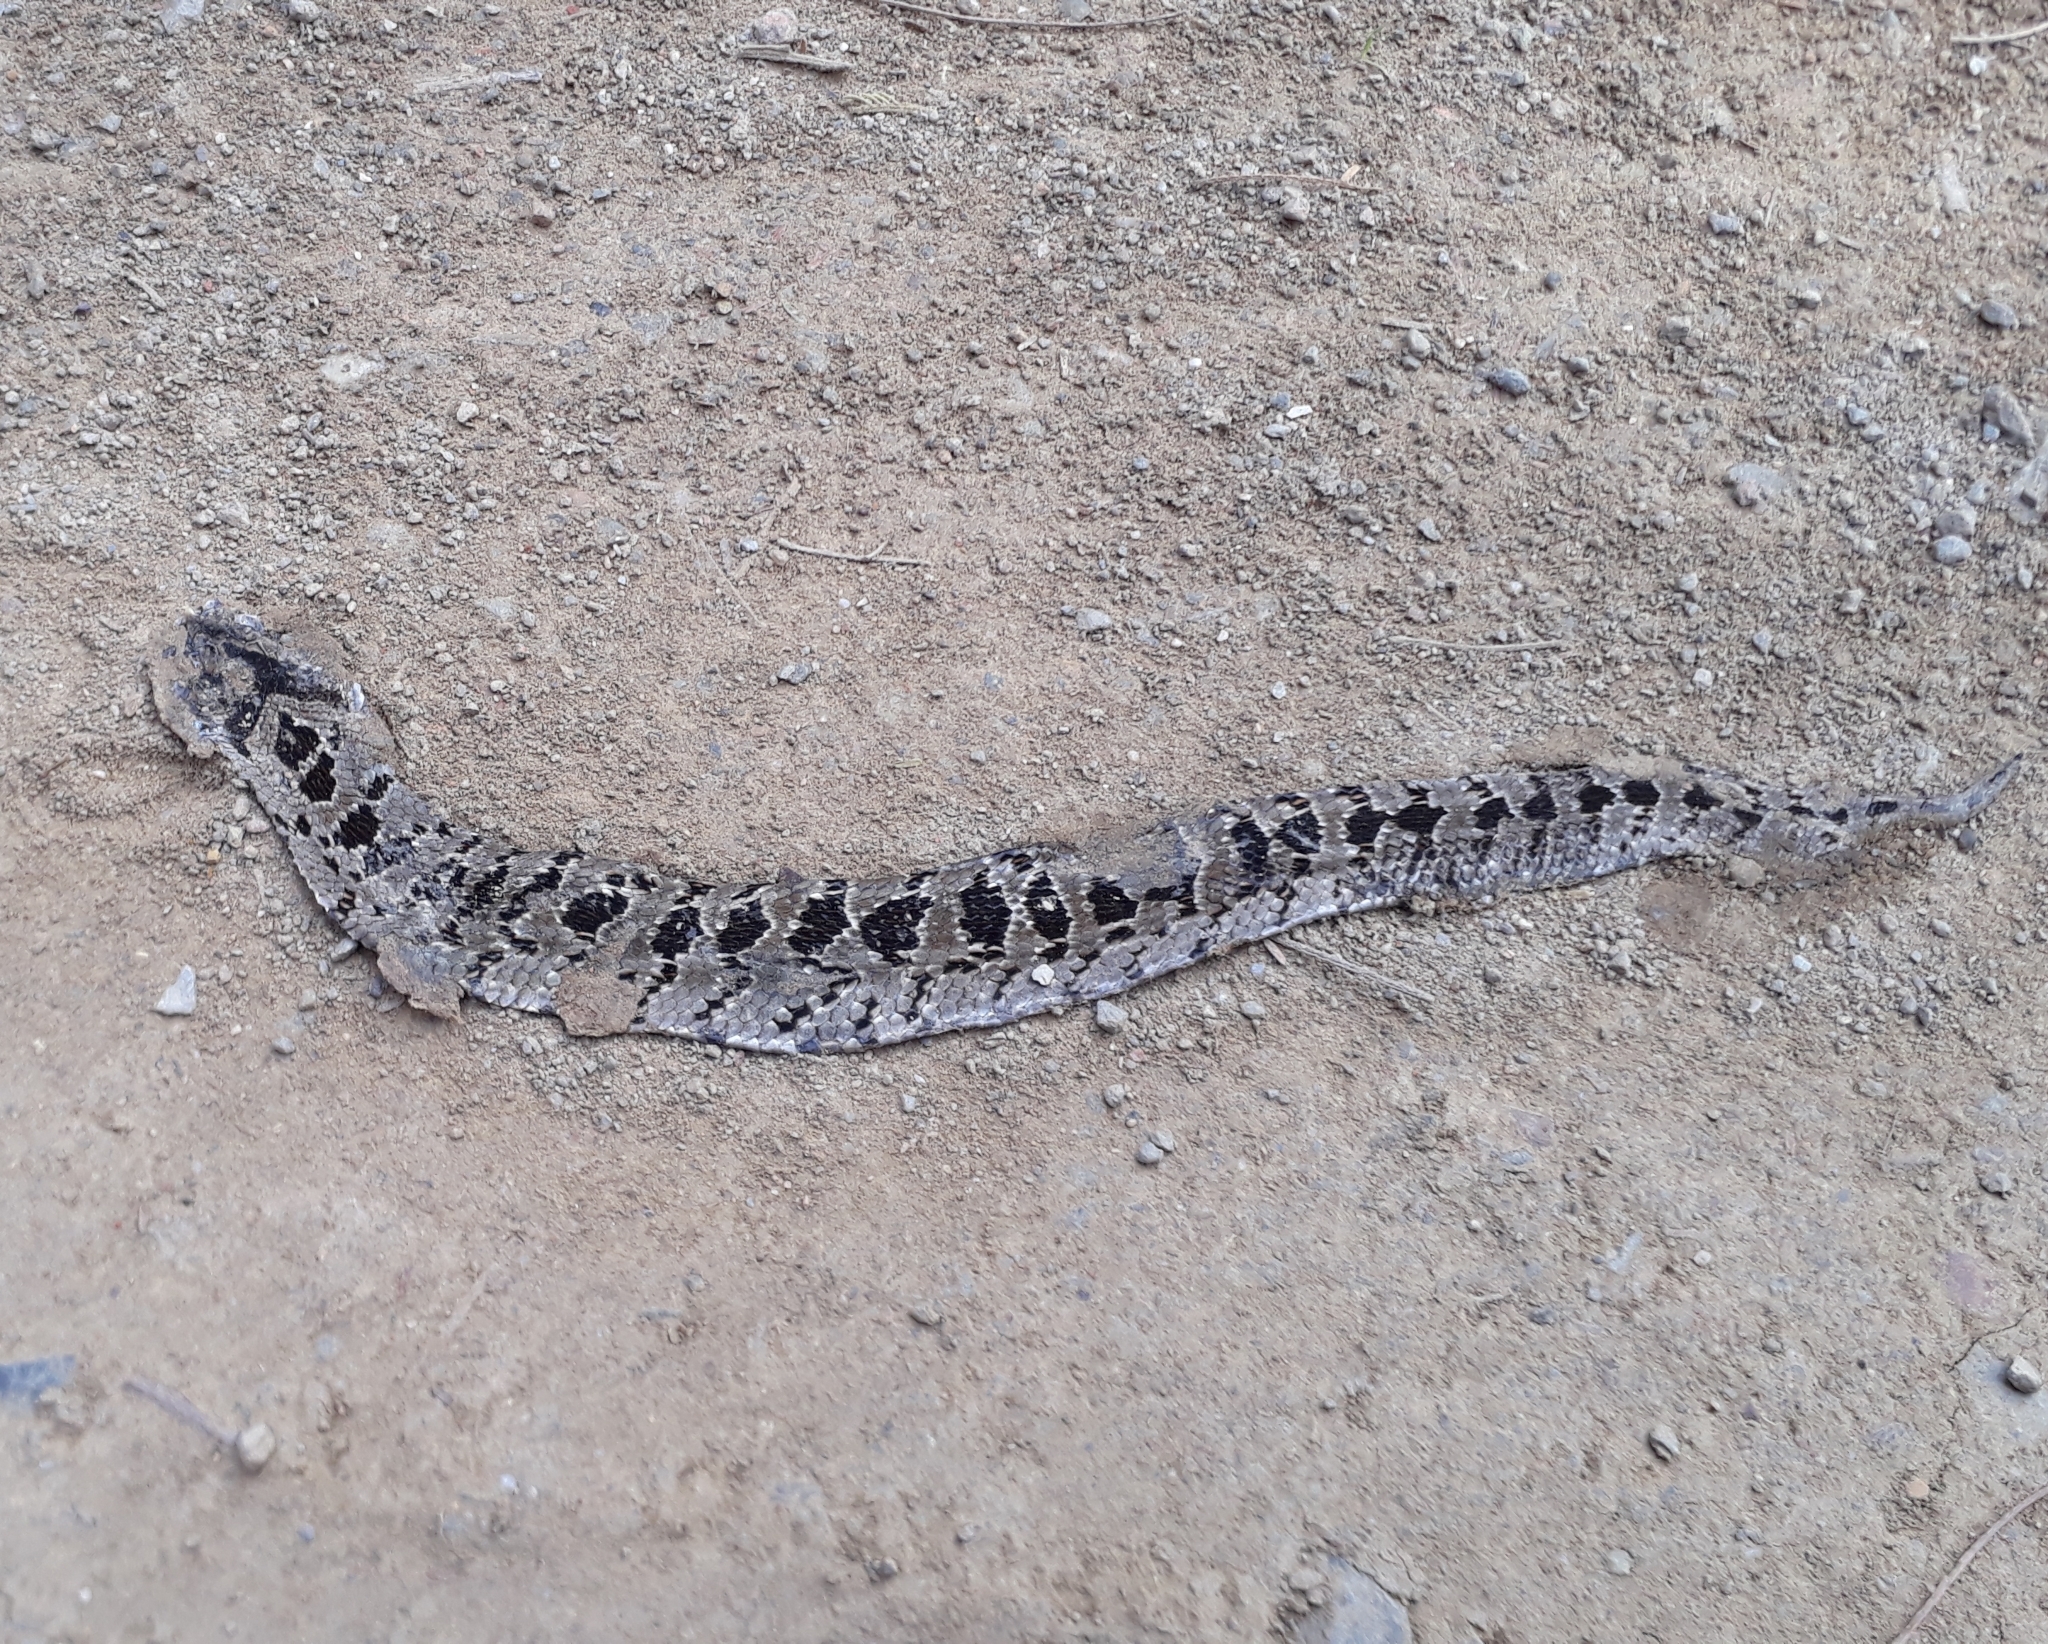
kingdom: Animalia
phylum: Chordata
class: Squamata
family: Viperidae
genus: Causus
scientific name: Causus rhombeatus
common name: Common night adder
